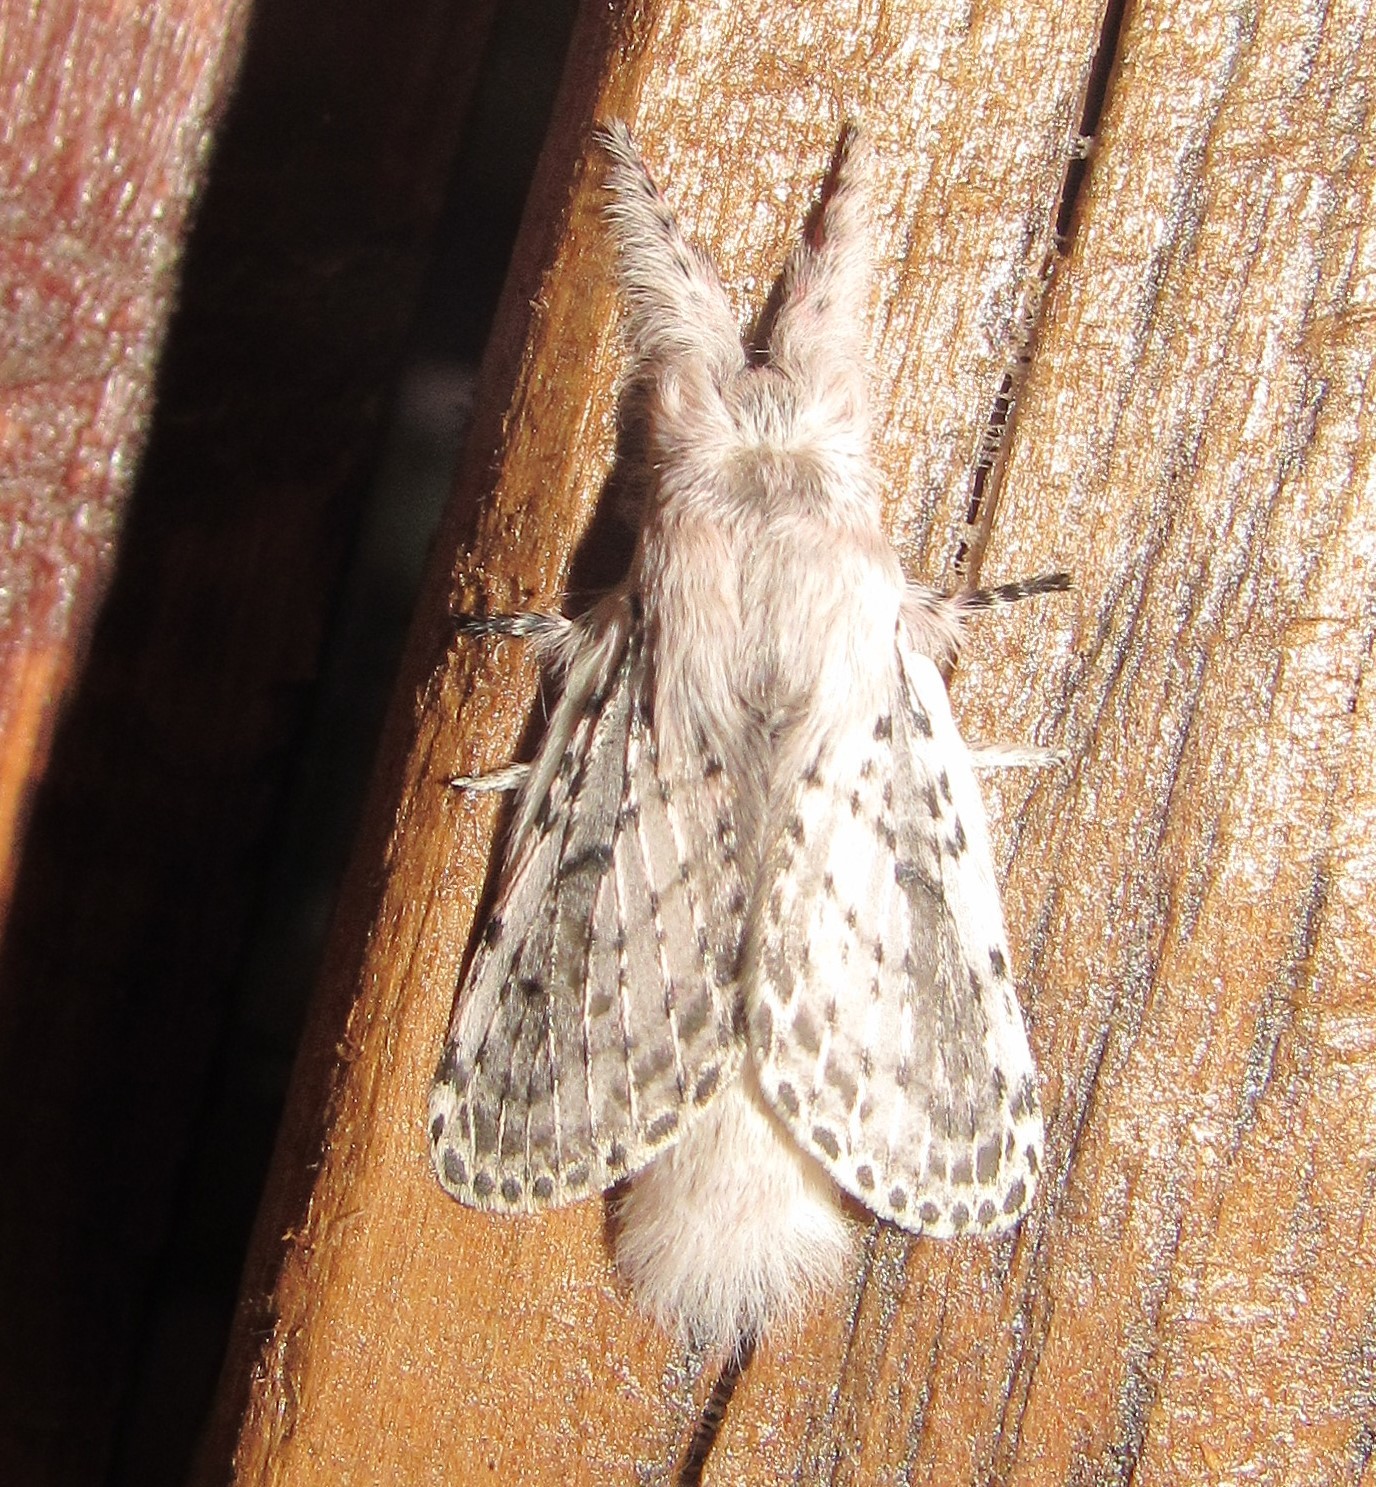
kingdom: Animalia
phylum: Arthropoda
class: Insecta
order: Lepidoptera
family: Lasiocampidae
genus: Artace
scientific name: Artace itatiaya
